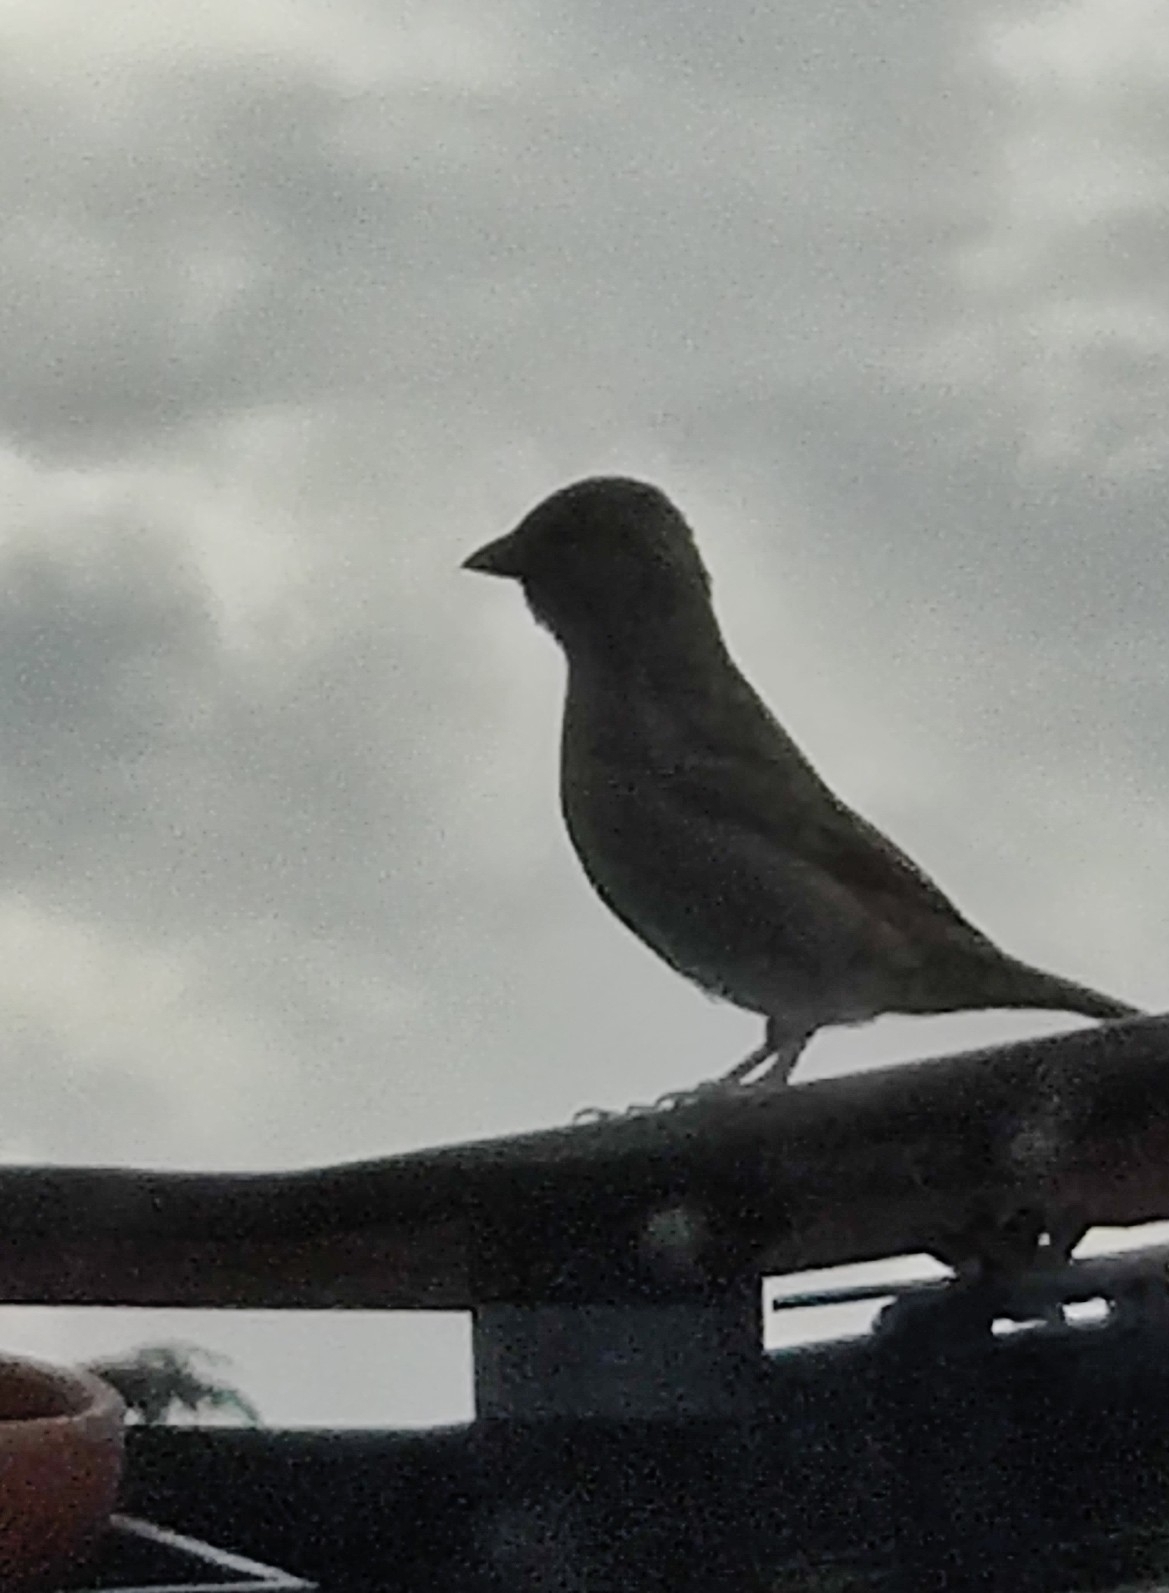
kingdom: Animalia
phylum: Chordata
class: Aves
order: Passeriformes
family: Passeridae
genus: Passer
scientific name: Passer domesticus
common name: House sparrow
